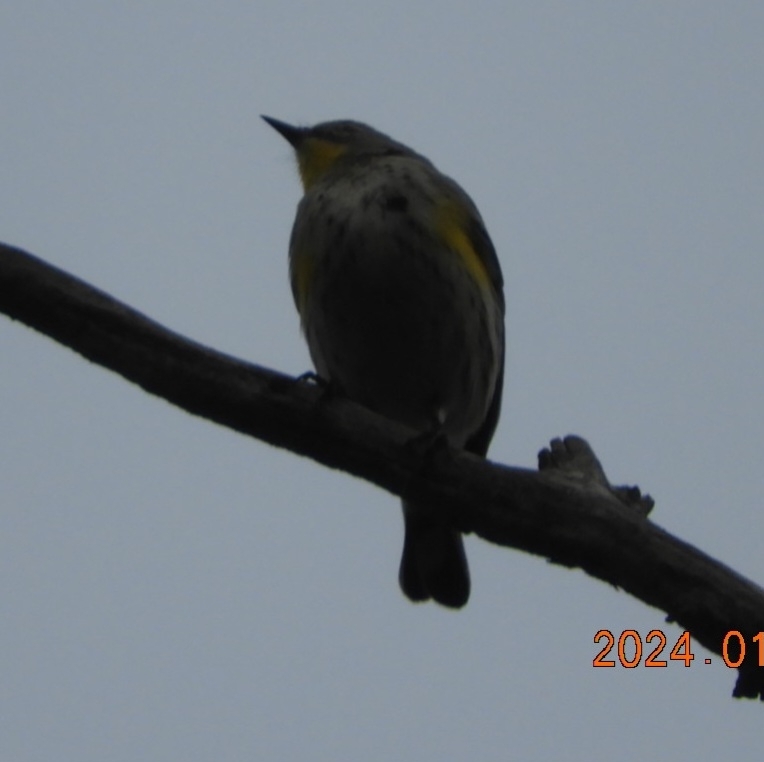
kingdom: Animalia
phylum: Chordata
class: Aves
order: Passeriformes
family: Parulidae
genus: Setophaga
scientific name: Setophaga coronata
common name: Myrtle warbler
